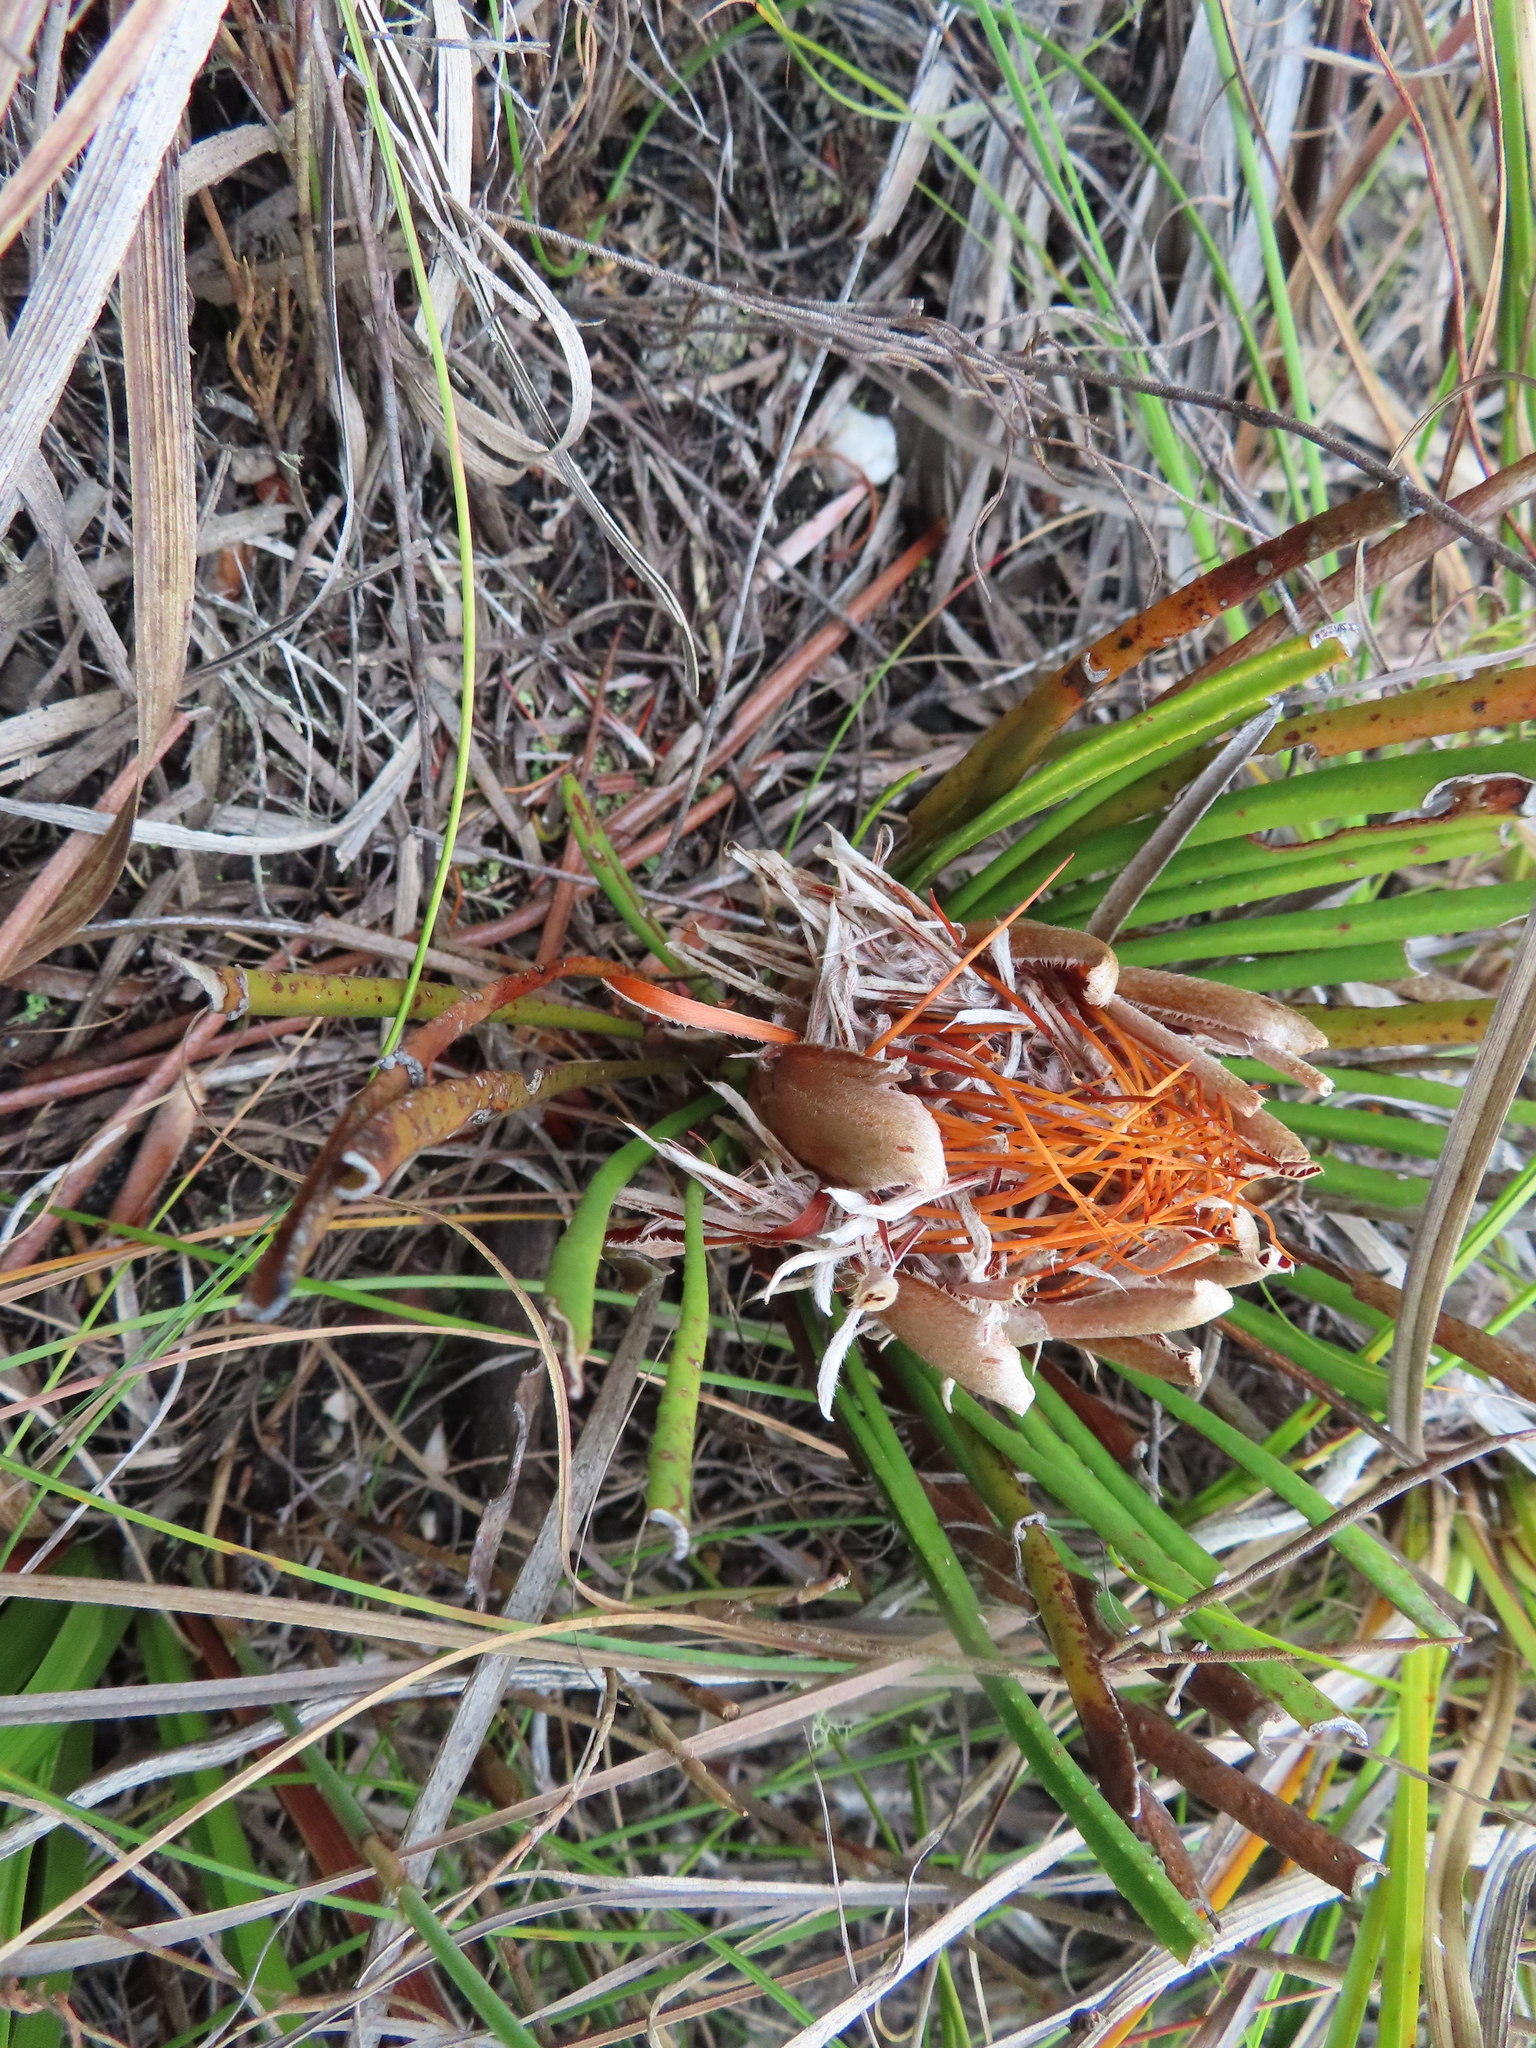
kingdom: Plantae
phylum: Tracheophyta
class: Magnoliopsida
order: Proteales
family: Proteaceae
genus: Protea
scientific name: Protea scabra
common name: Sandpaper-leaf sugarbush
